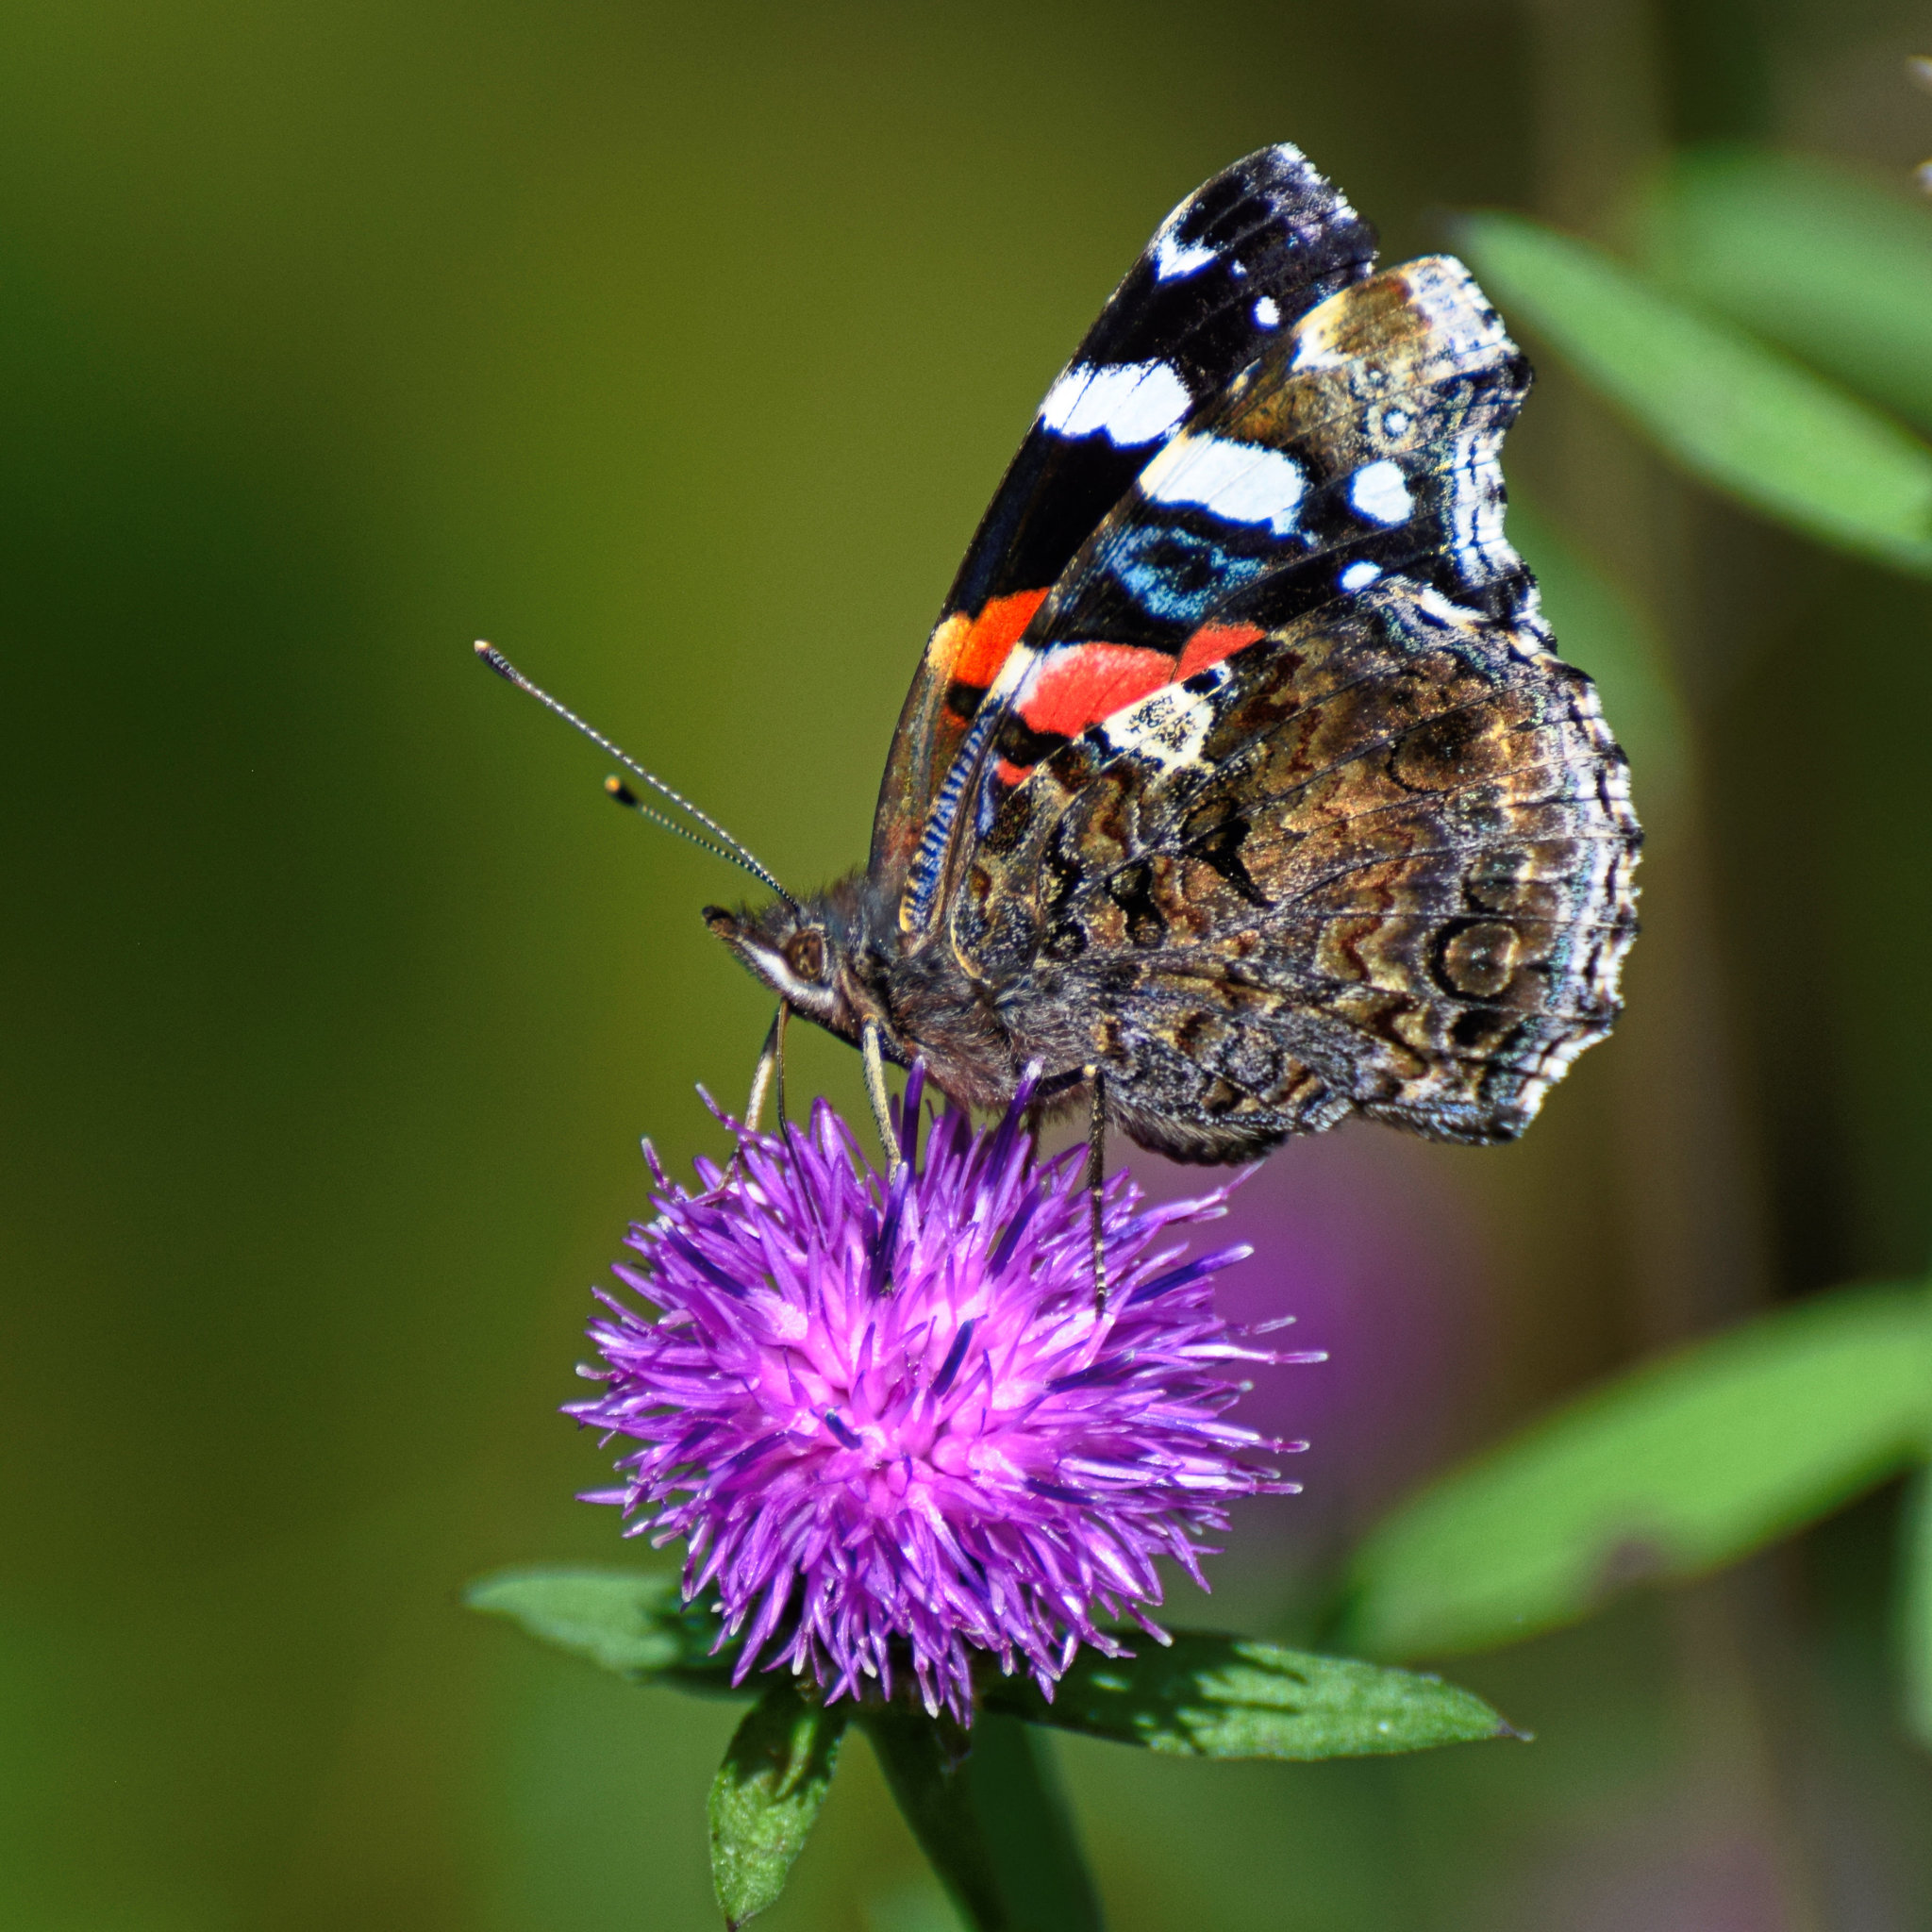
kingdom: Animalia
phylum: Arthropoda
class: Insecta
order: Lepidoptera
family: Nymphalidae
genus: Vanessa
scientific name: Vanessa atalanta
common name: Red admiral
